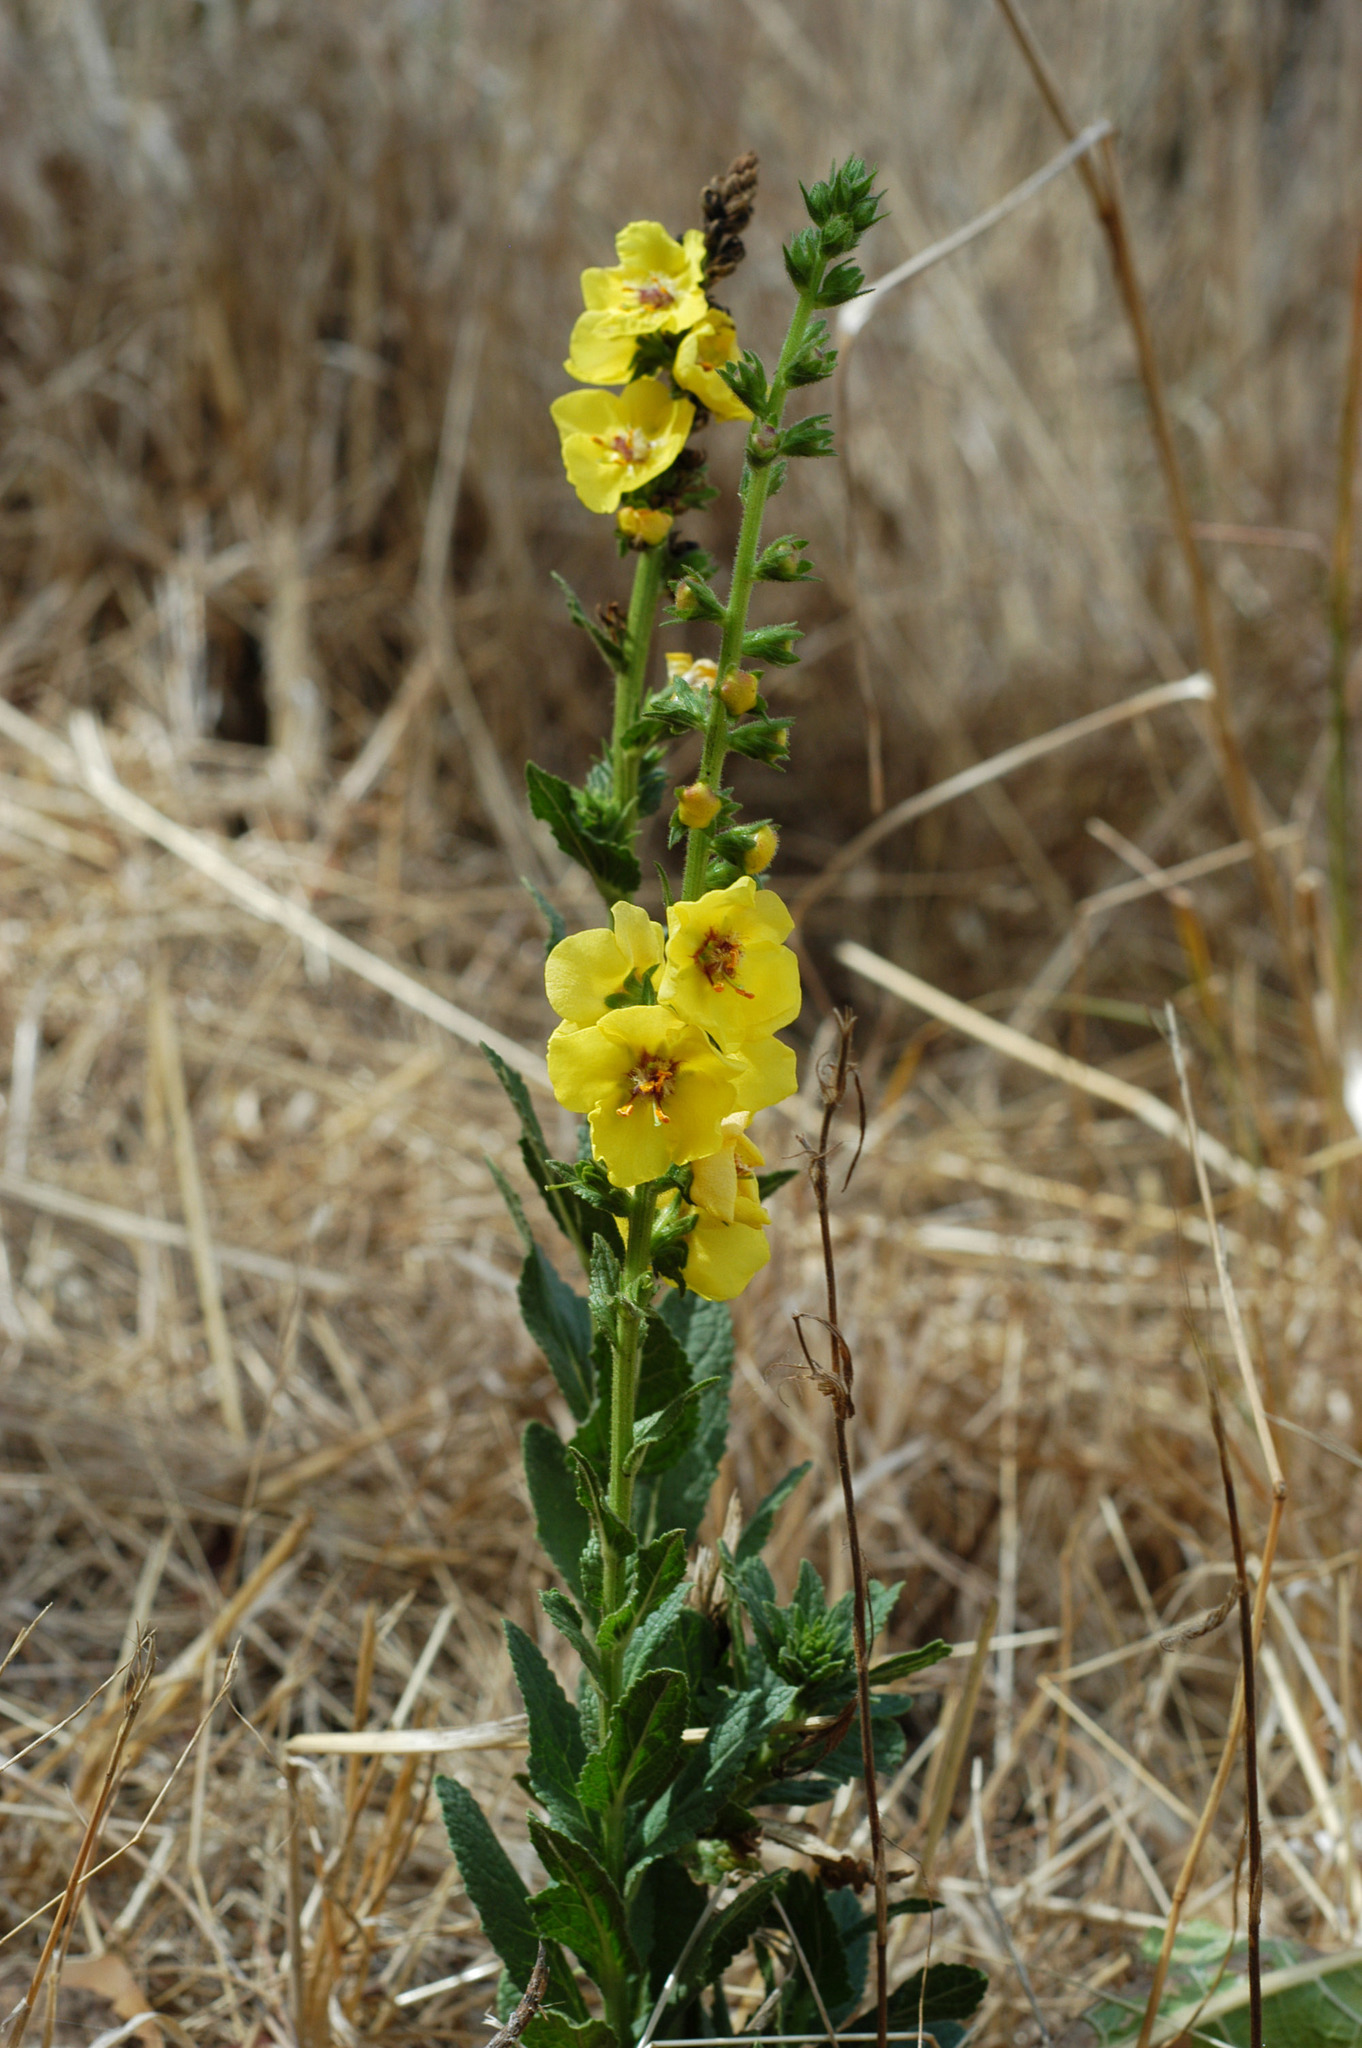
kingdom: Plantae
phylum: Tracheophyta
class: Magnoliopsida
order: Lamiales
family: Scrophulariaceae
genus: Verbascum
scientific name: Verbascum virgatum
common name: Twiggy mullein
